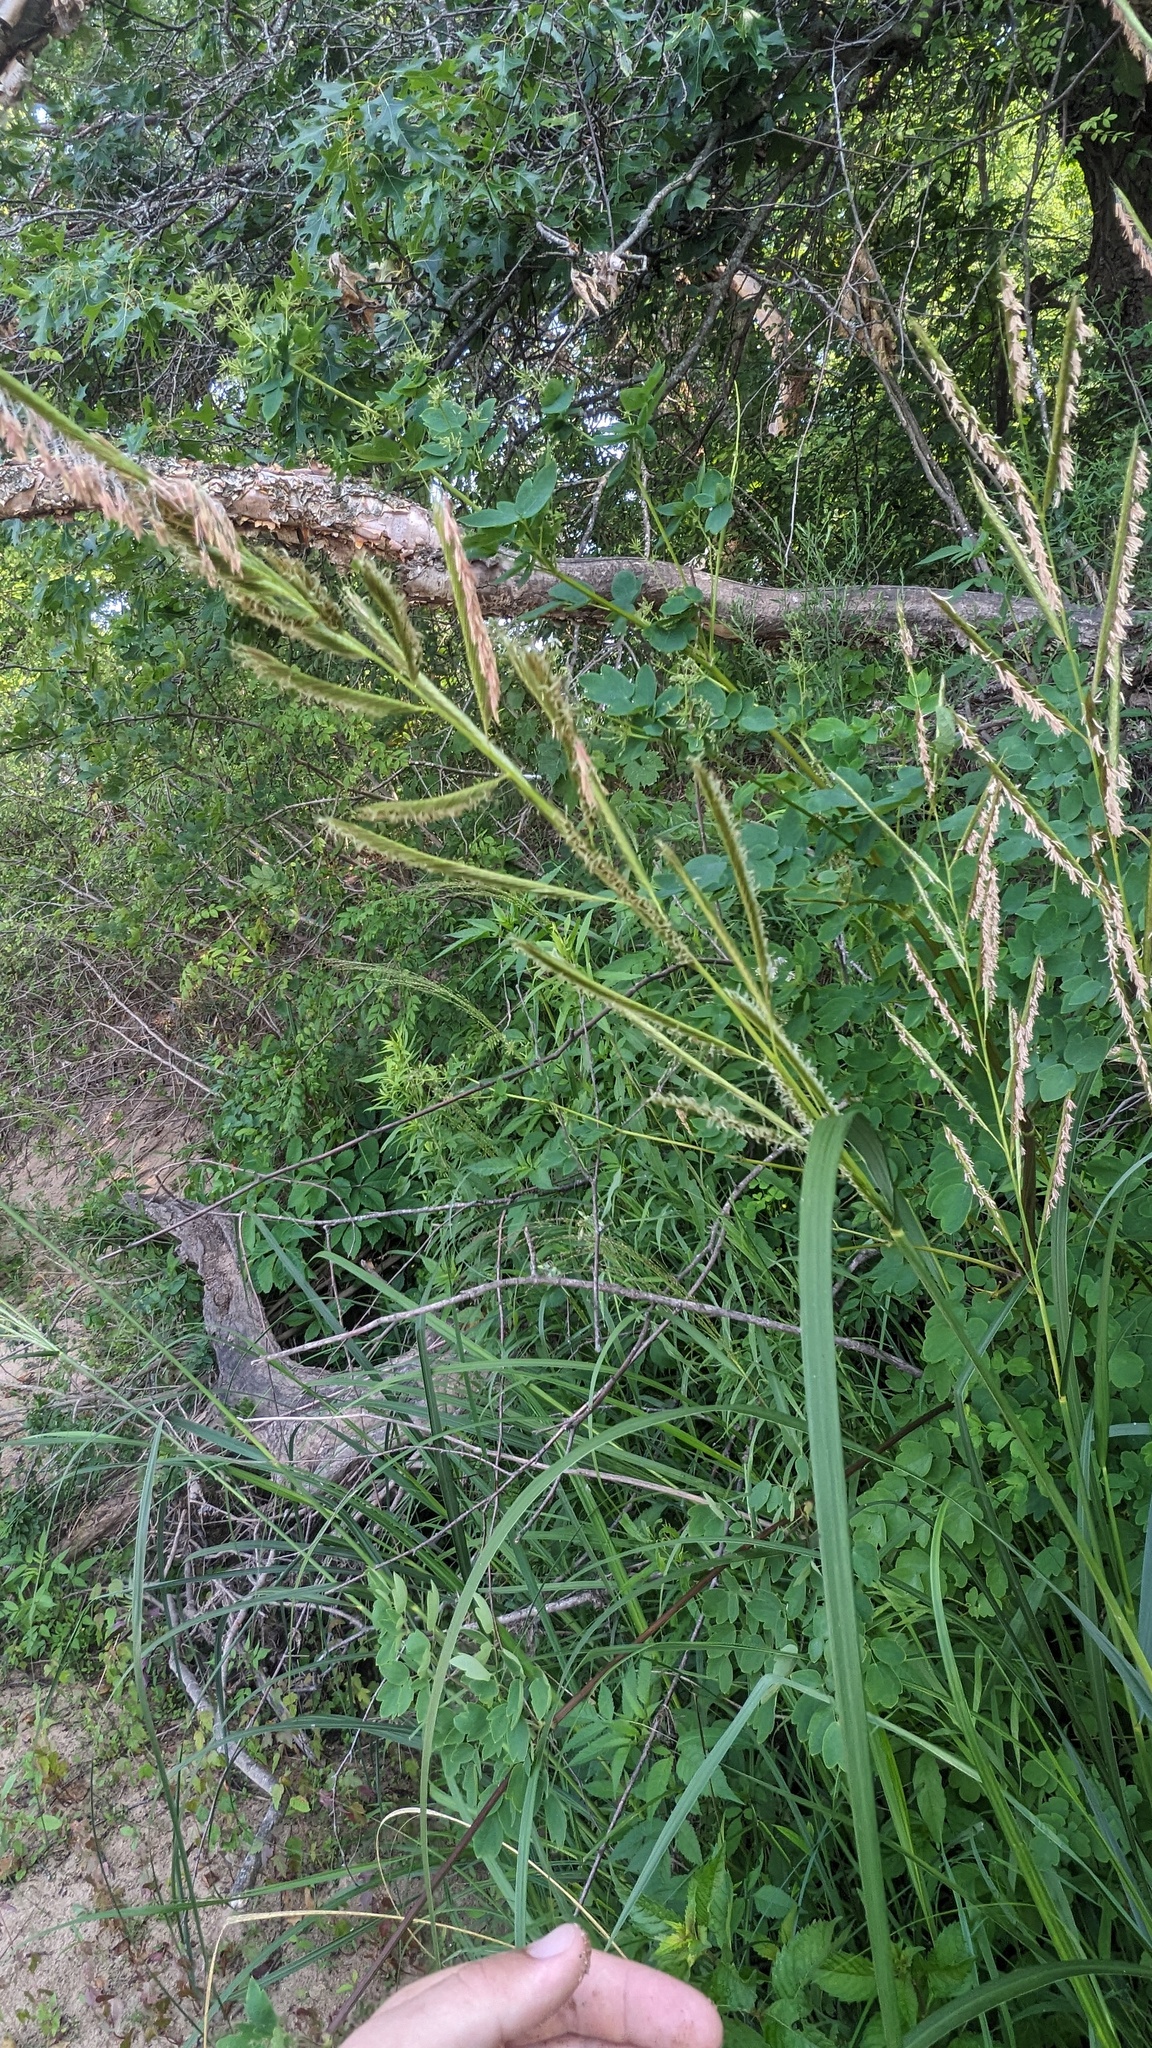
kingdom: Plantae
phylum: Tracheophyta
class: Liliopsida
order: Poales
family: Poaceae
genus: Sporobolus
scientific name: Sporobolus michauxianus
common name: Freshwater cordgrass
